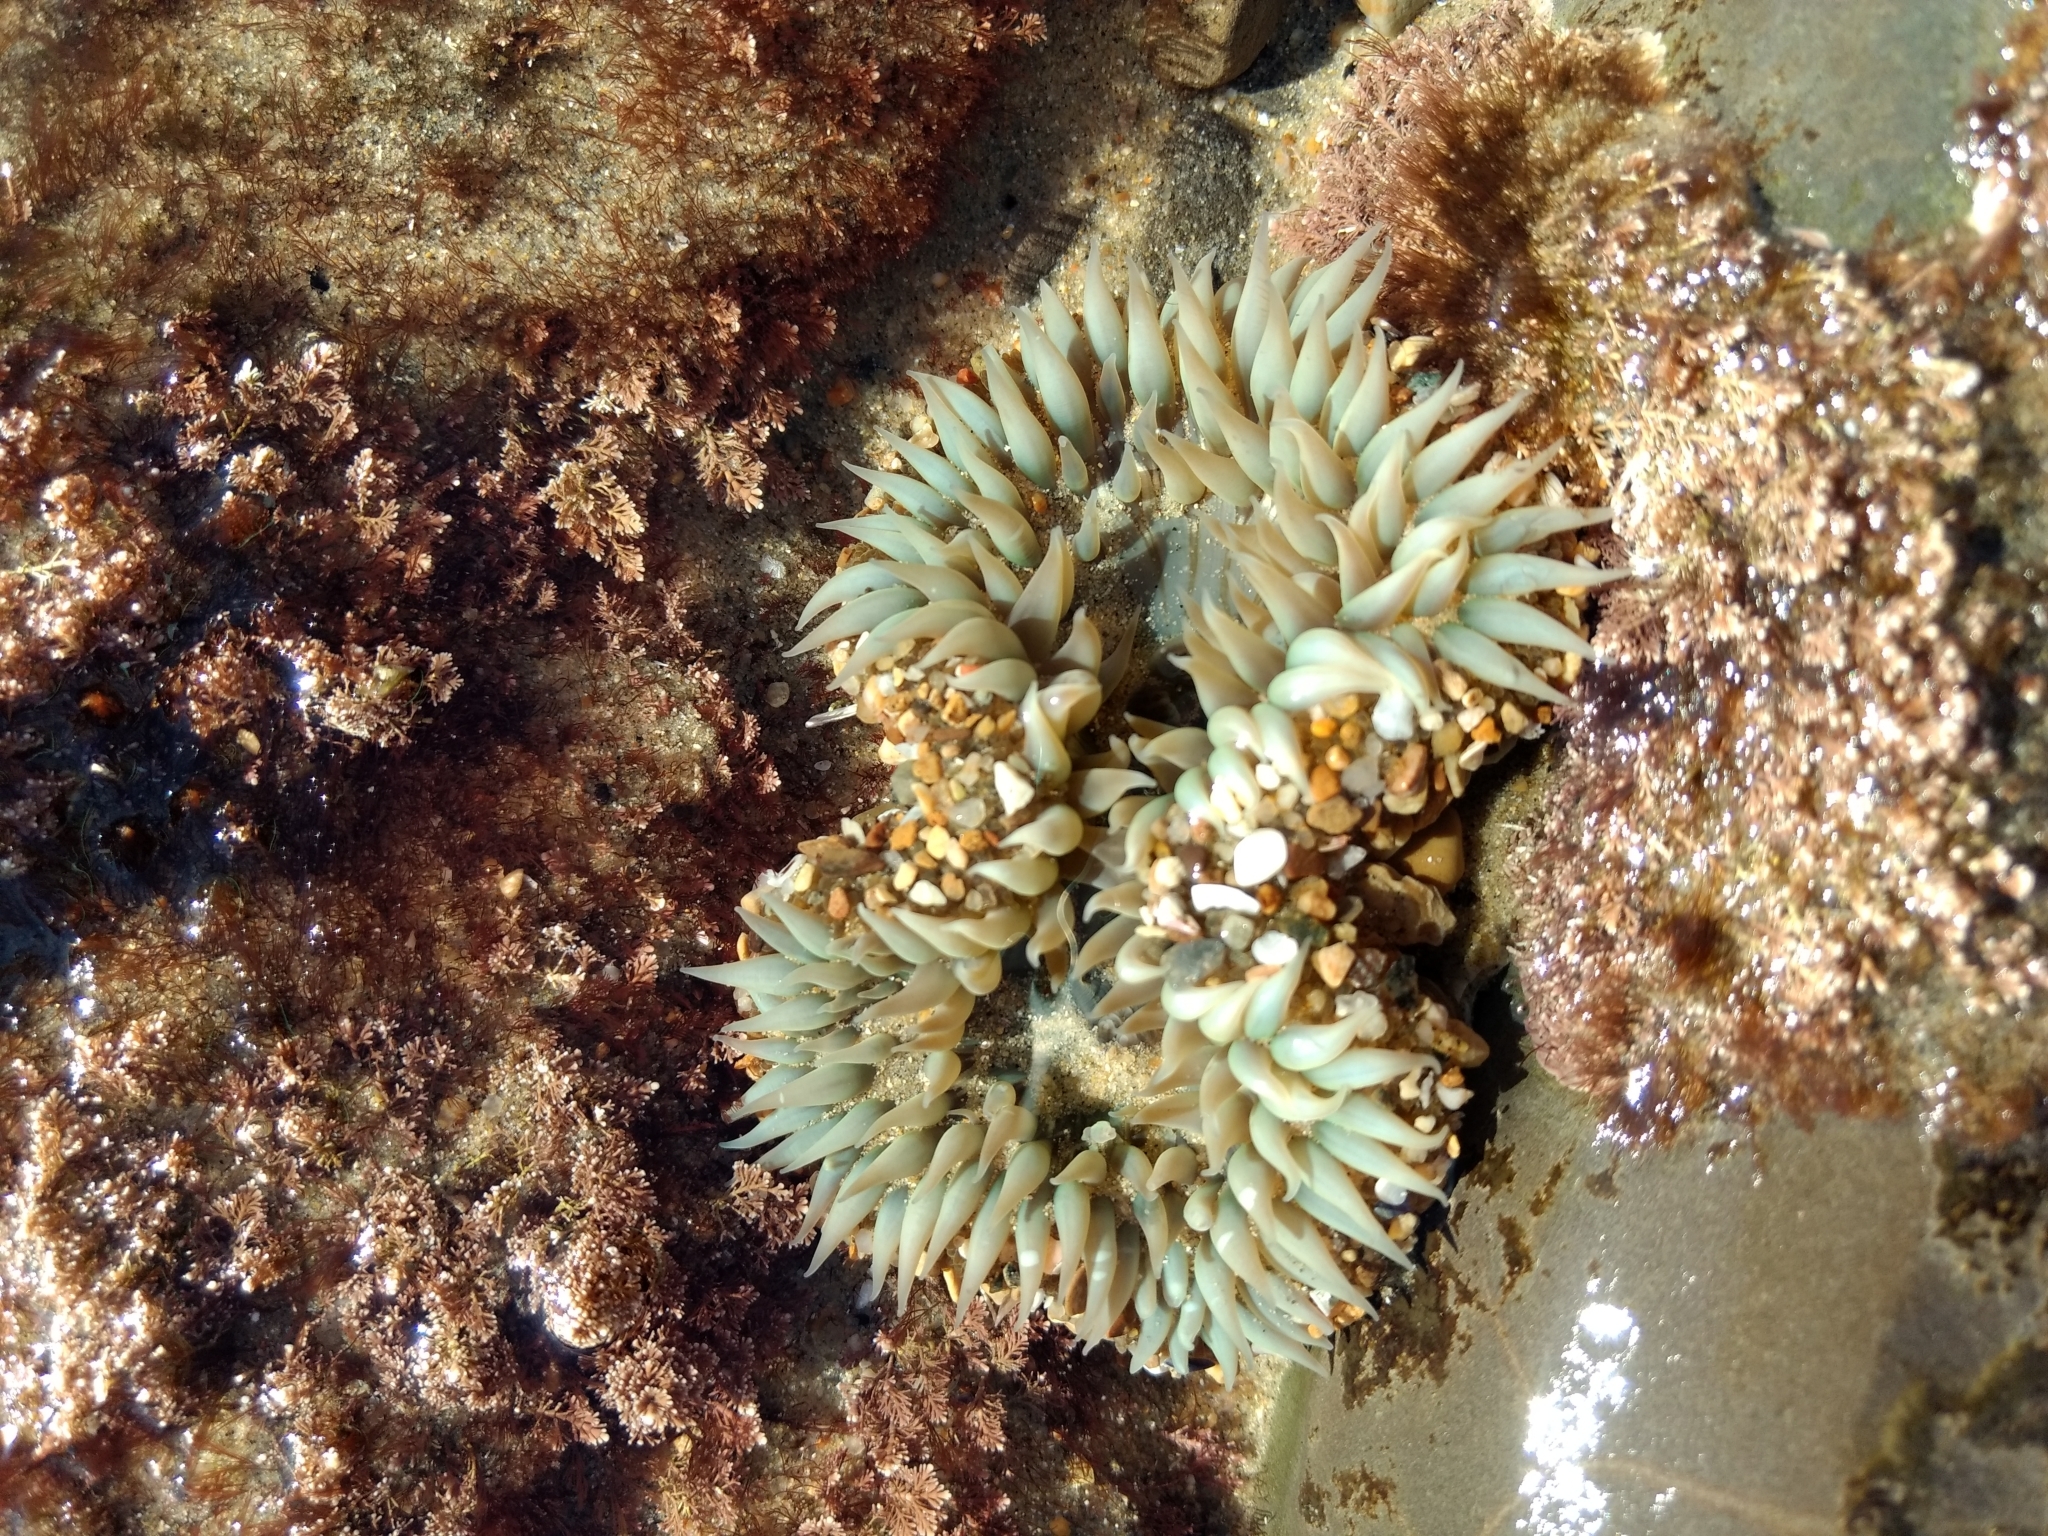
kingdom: Animalia
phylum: Cnidaria
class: Anthozoa
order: Actiniaria
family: Actiniidae
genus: Anthopleura
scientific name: Anthopleura sola
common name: Sun anemone
